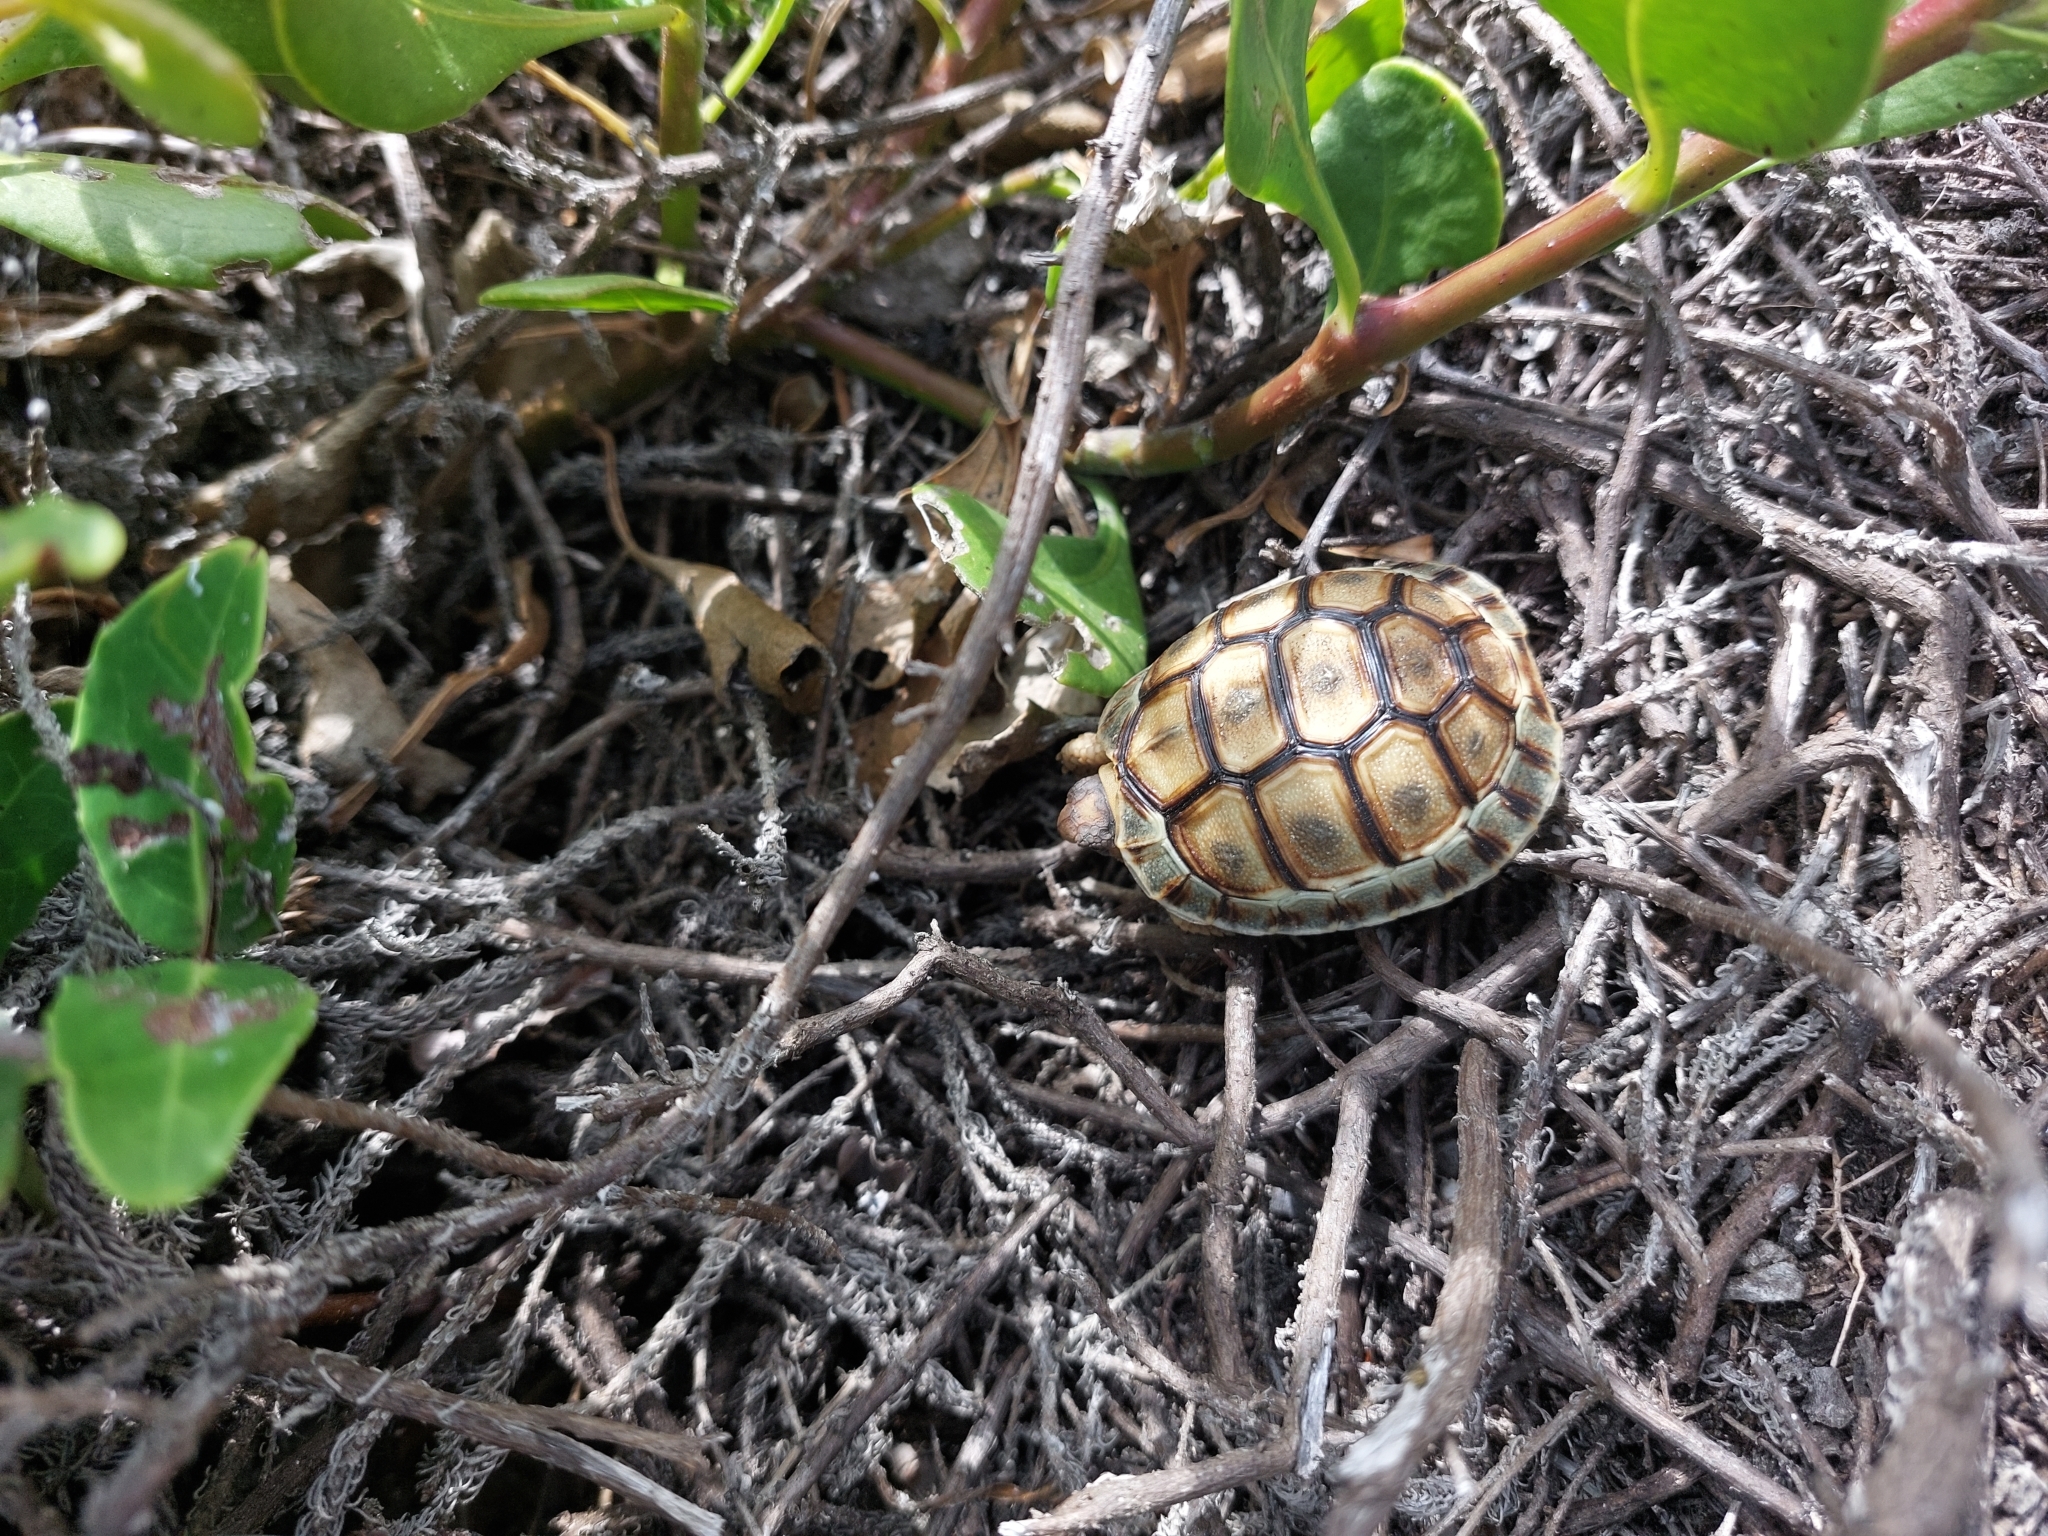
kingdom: Animalia
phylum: Chordata
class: Testudines
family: Testudinidae
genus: Chersina
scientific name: Chersina angulata
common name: South african bowsprit tortoise
